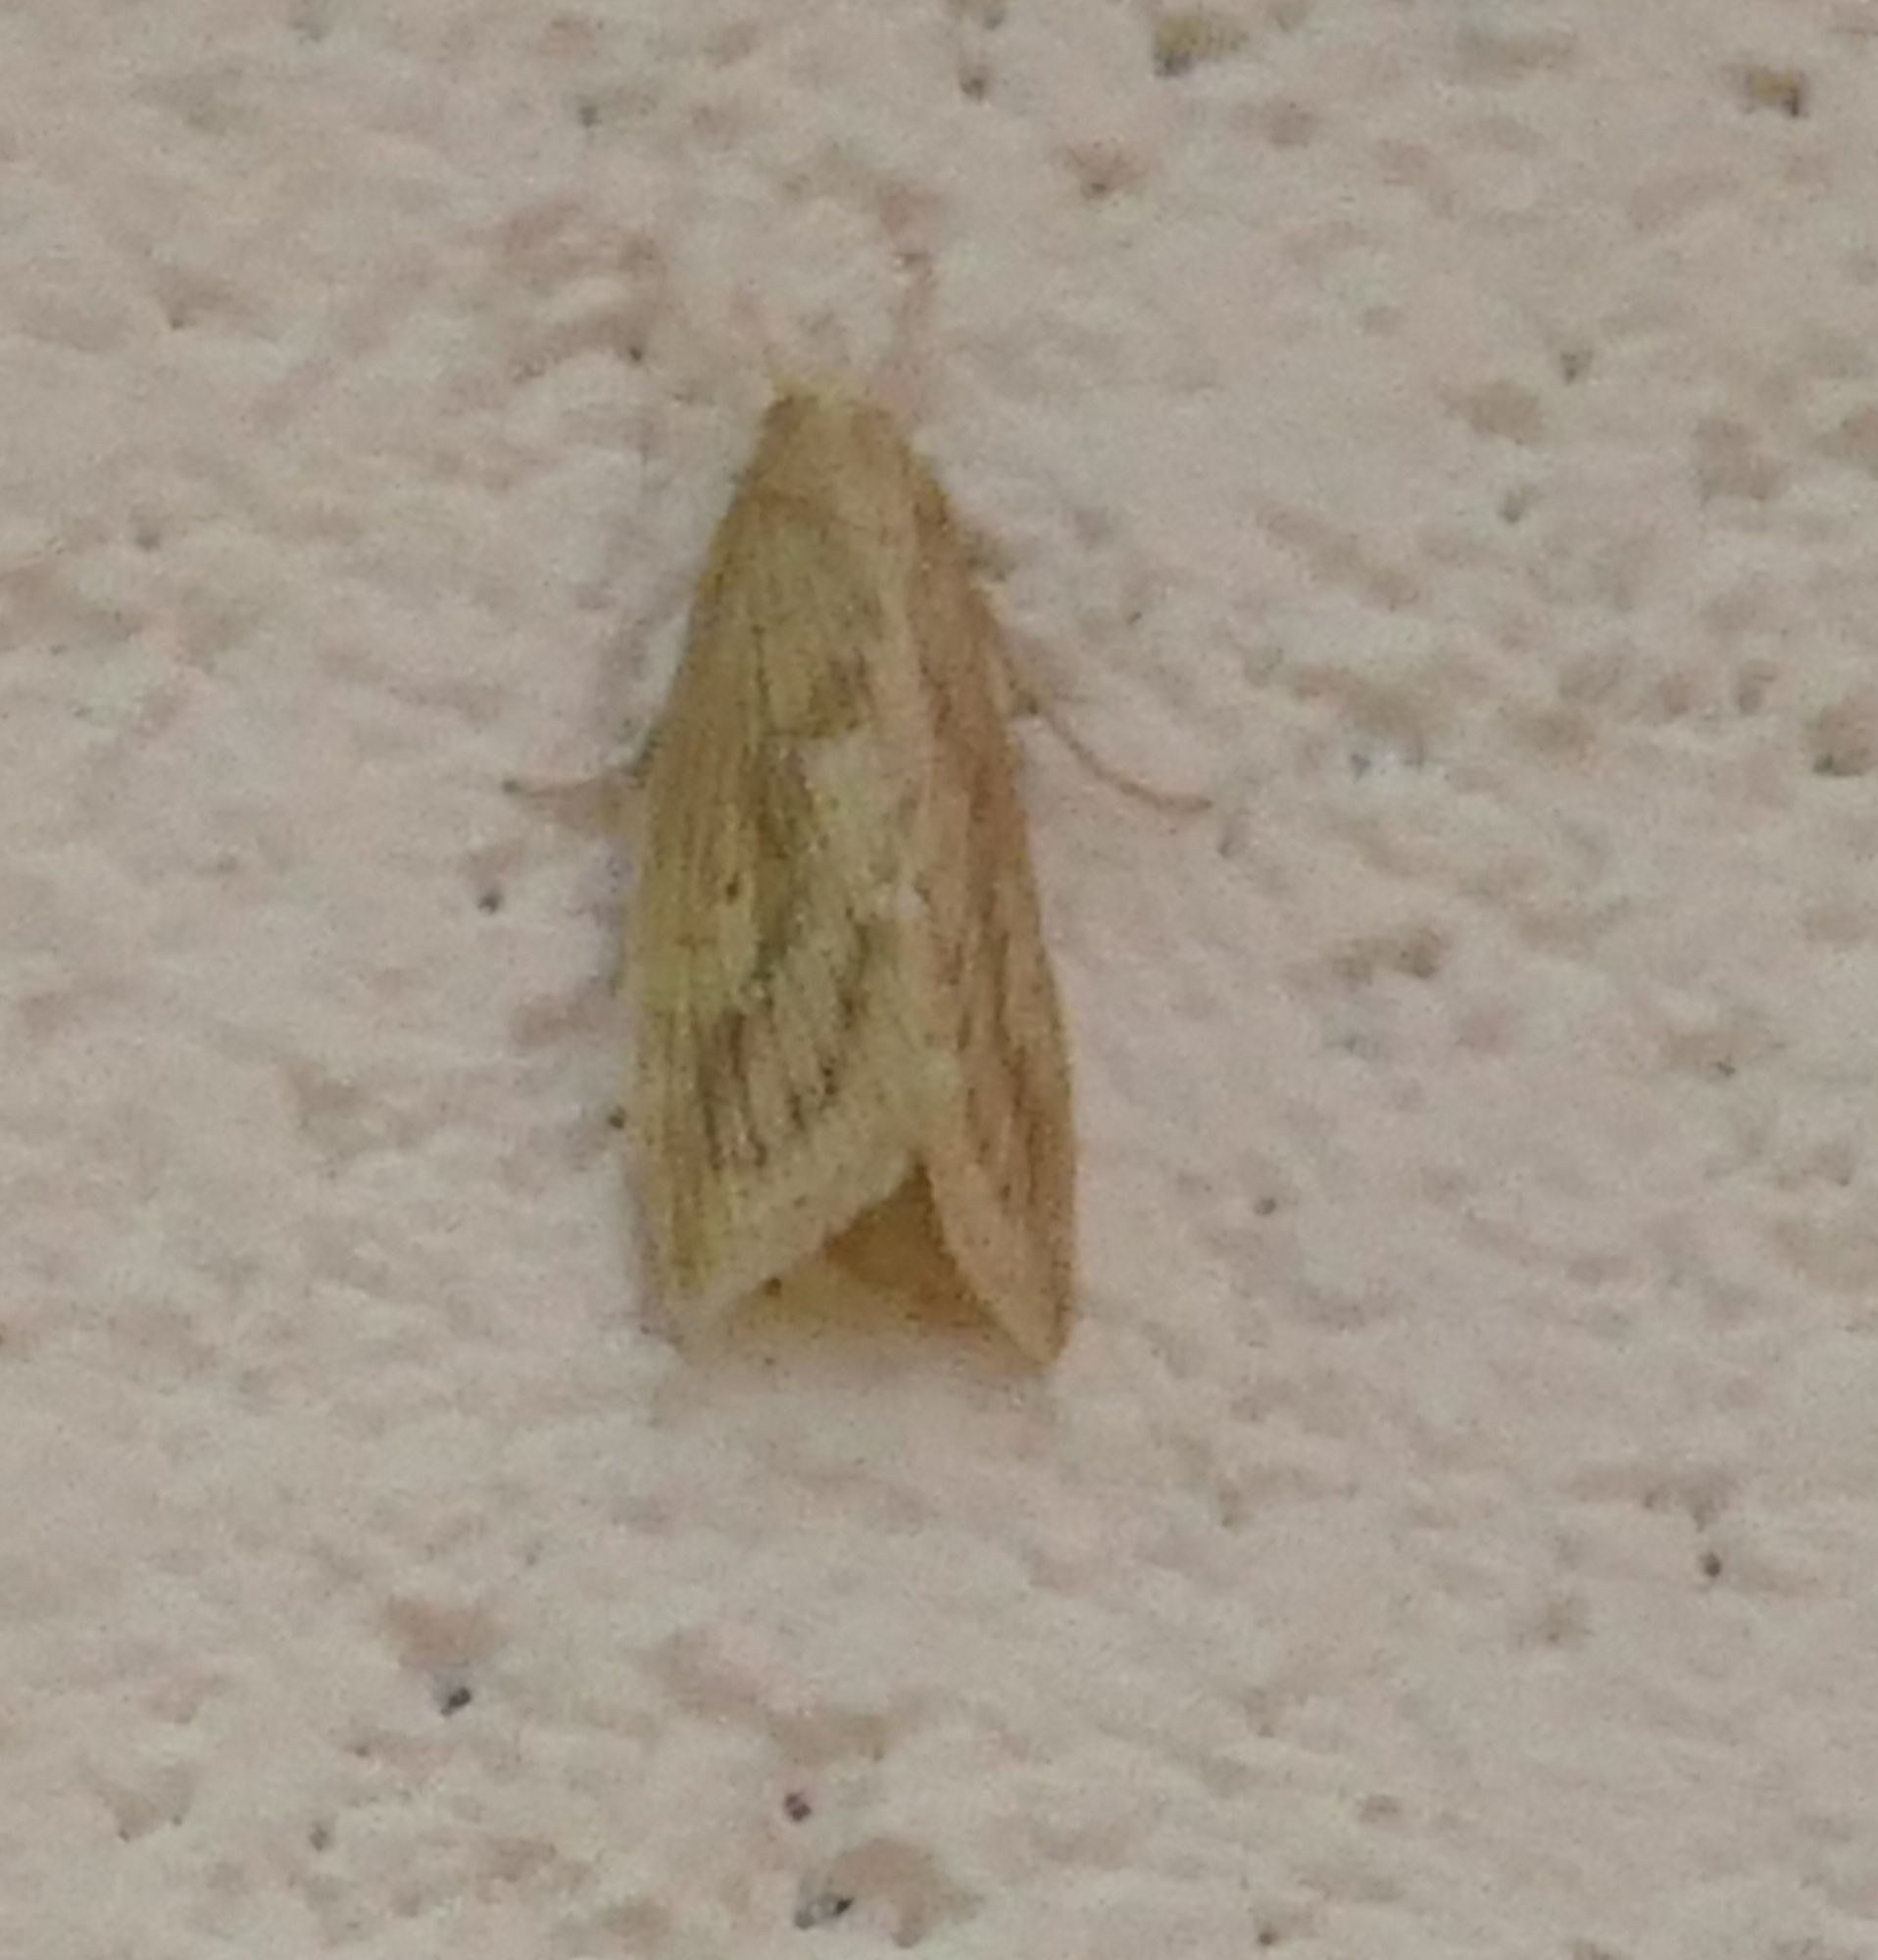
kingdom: Animalia
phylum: Arthropoda
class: Insecta
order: Lepidoptera
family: Crambidae
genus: Diatraea
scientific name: Diatraea lisetta
